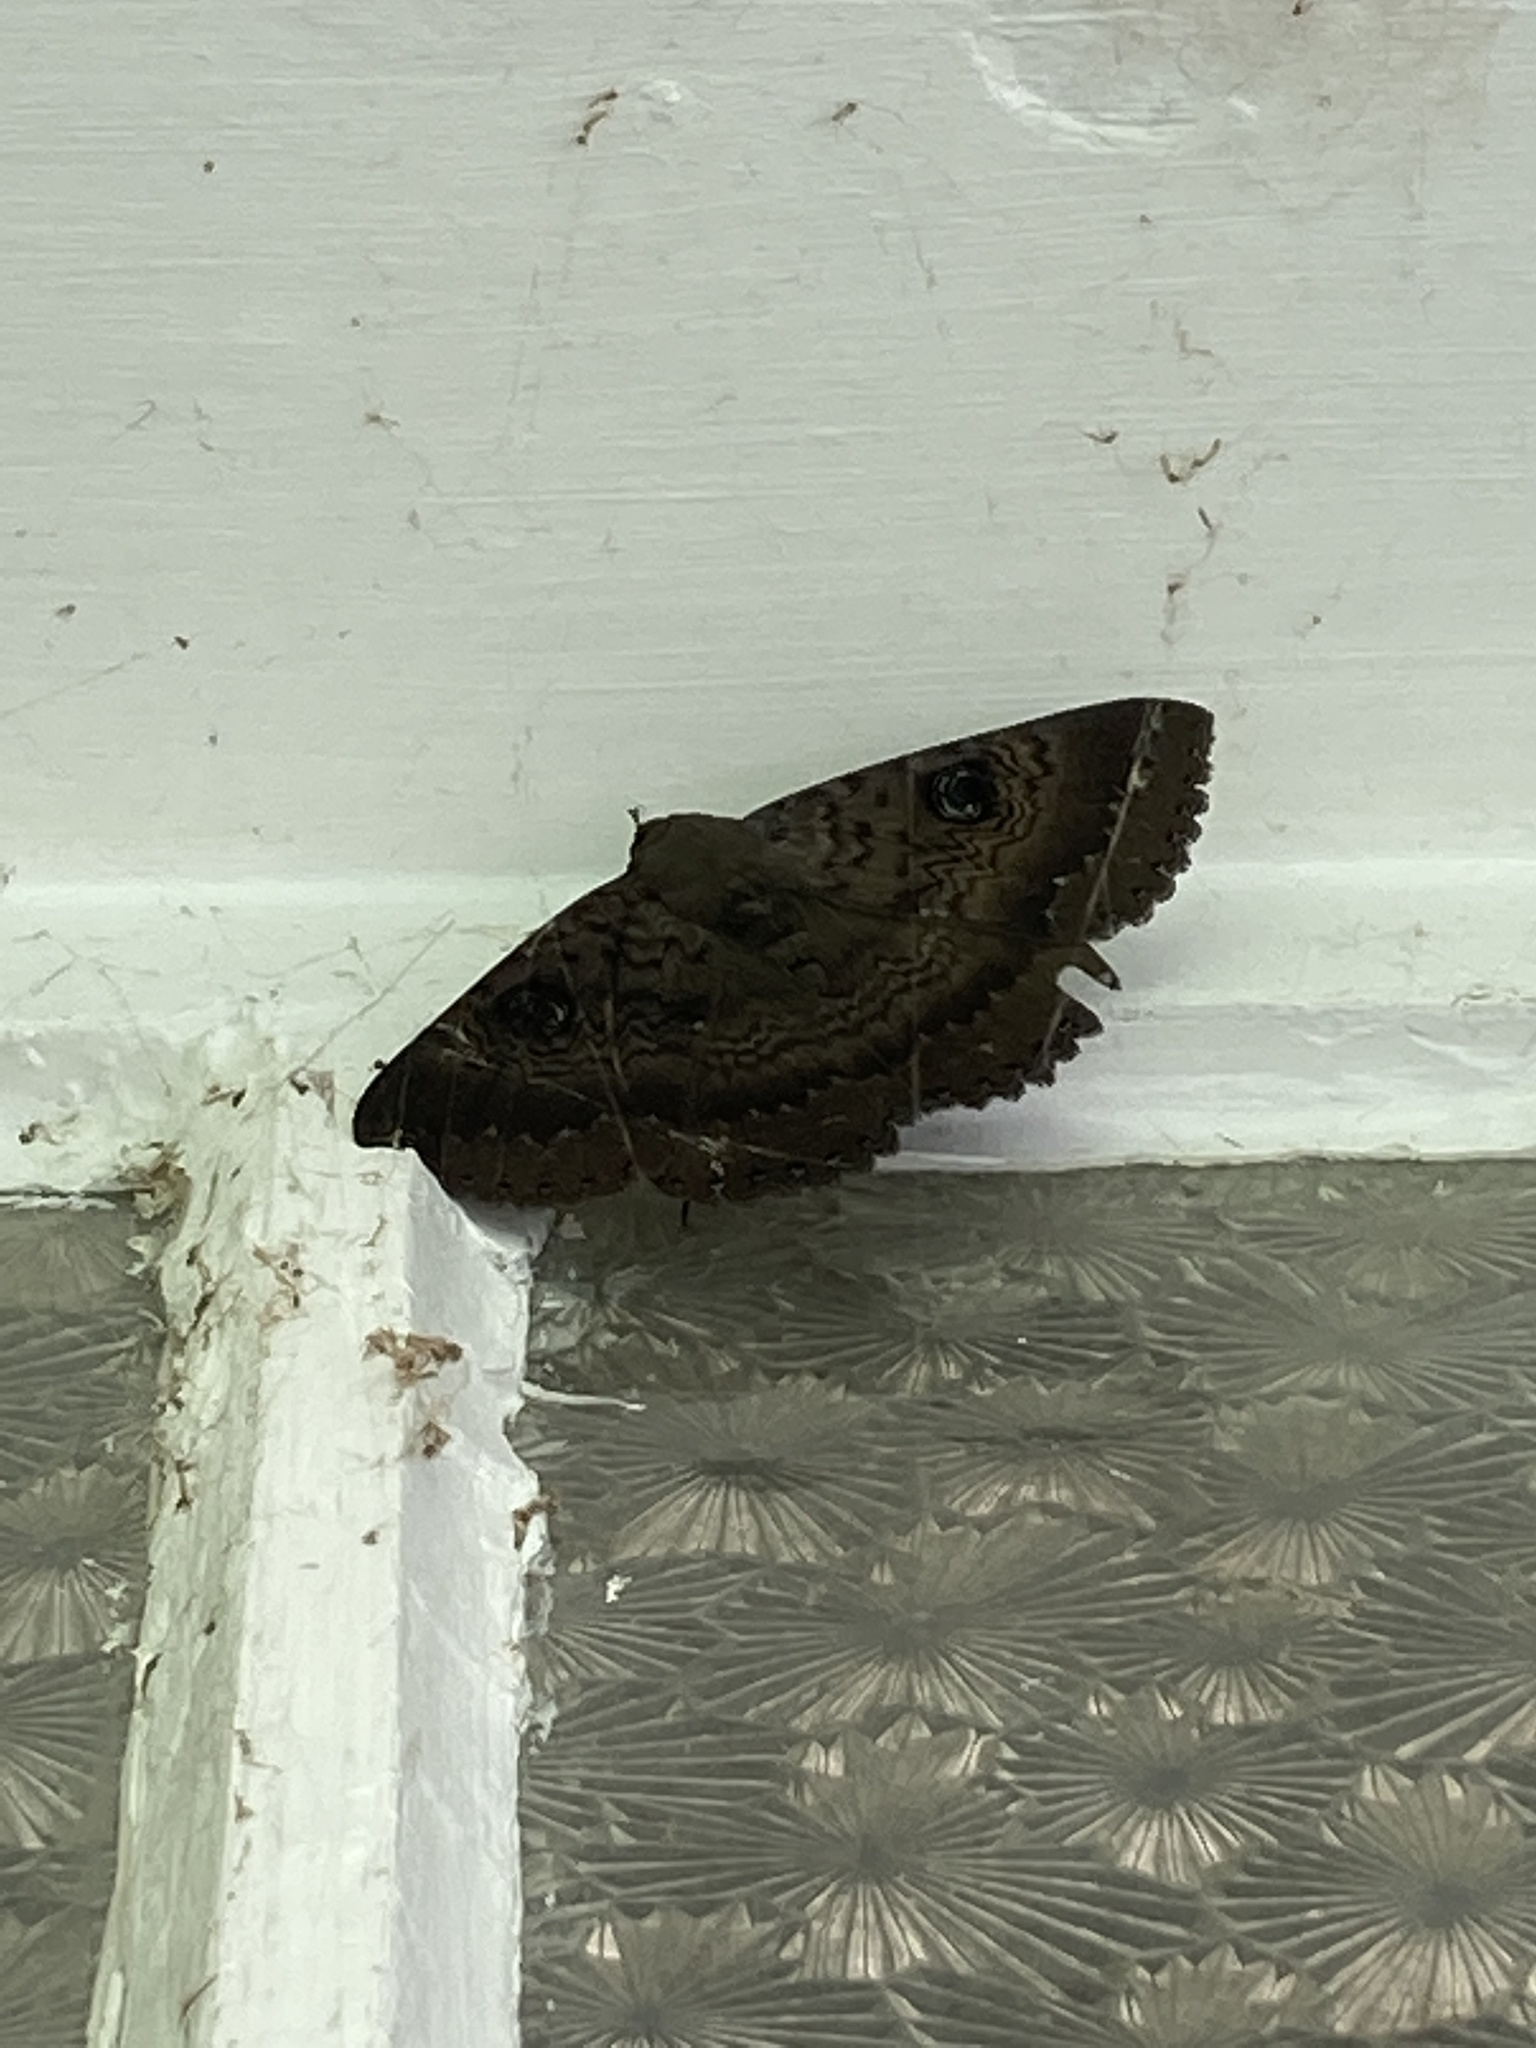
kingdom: Animalia
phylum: Arthropoda
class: Insecta
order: Lepidoptera
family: Erebidae
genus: Dasypodia
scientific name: Dasypodia cymatodes
